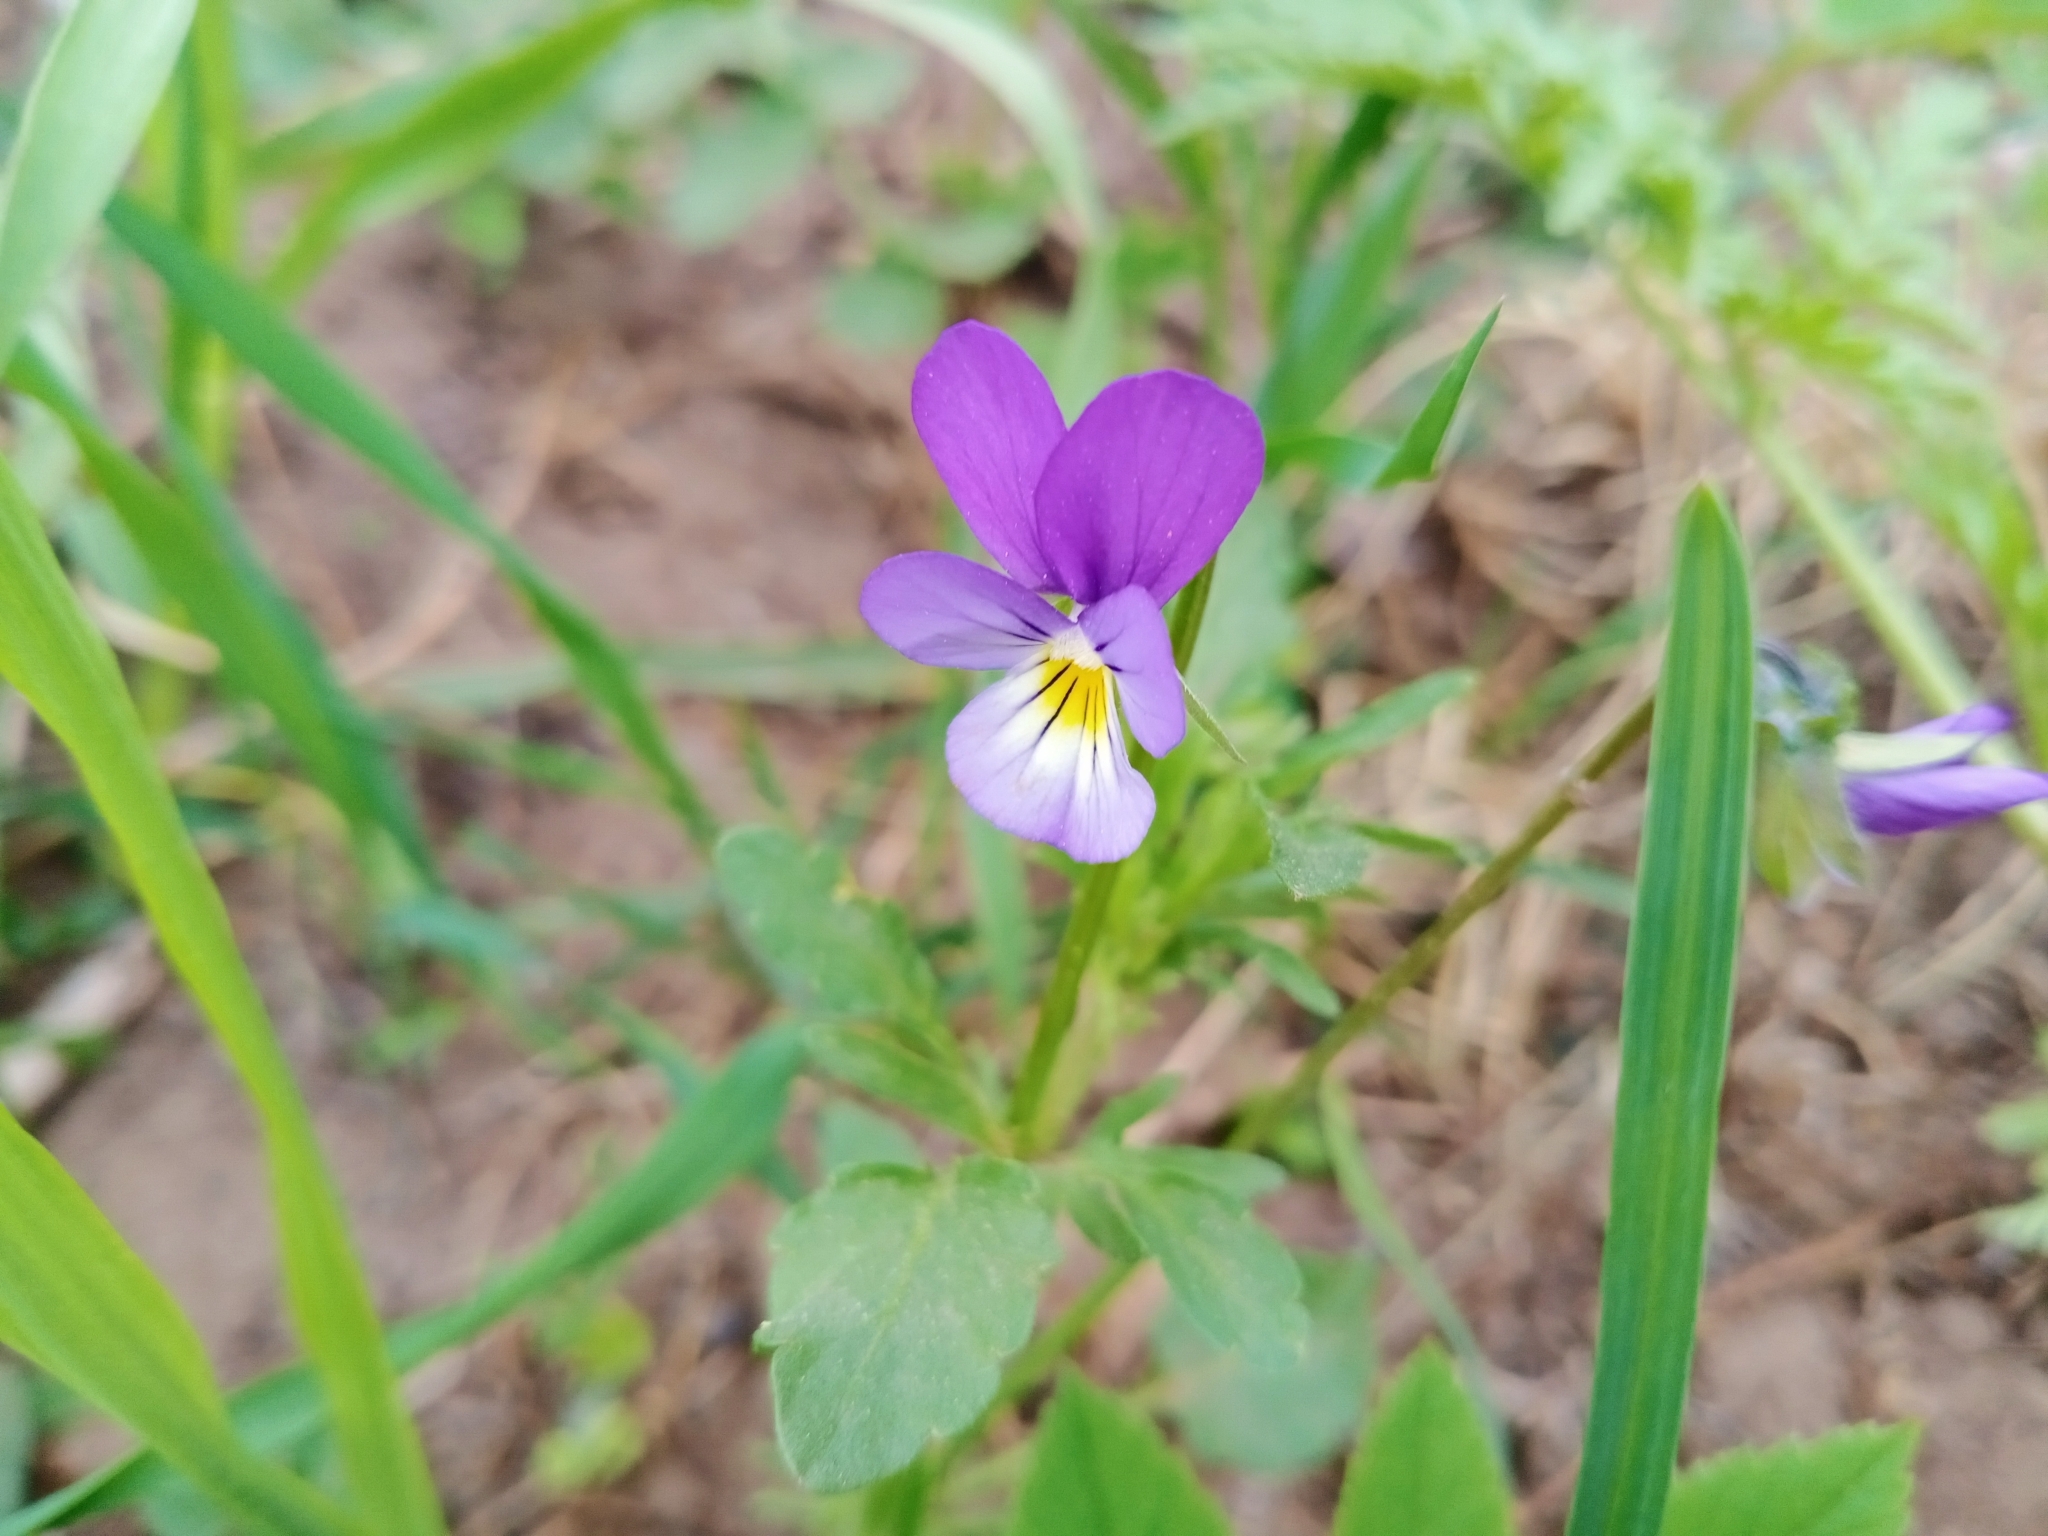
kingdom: Plantae
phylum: Tracheophyta
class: Magnoliopsida
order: Malpighiales
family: Violaceae
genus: Viola
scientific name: Viola tricolor
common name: Pansy
